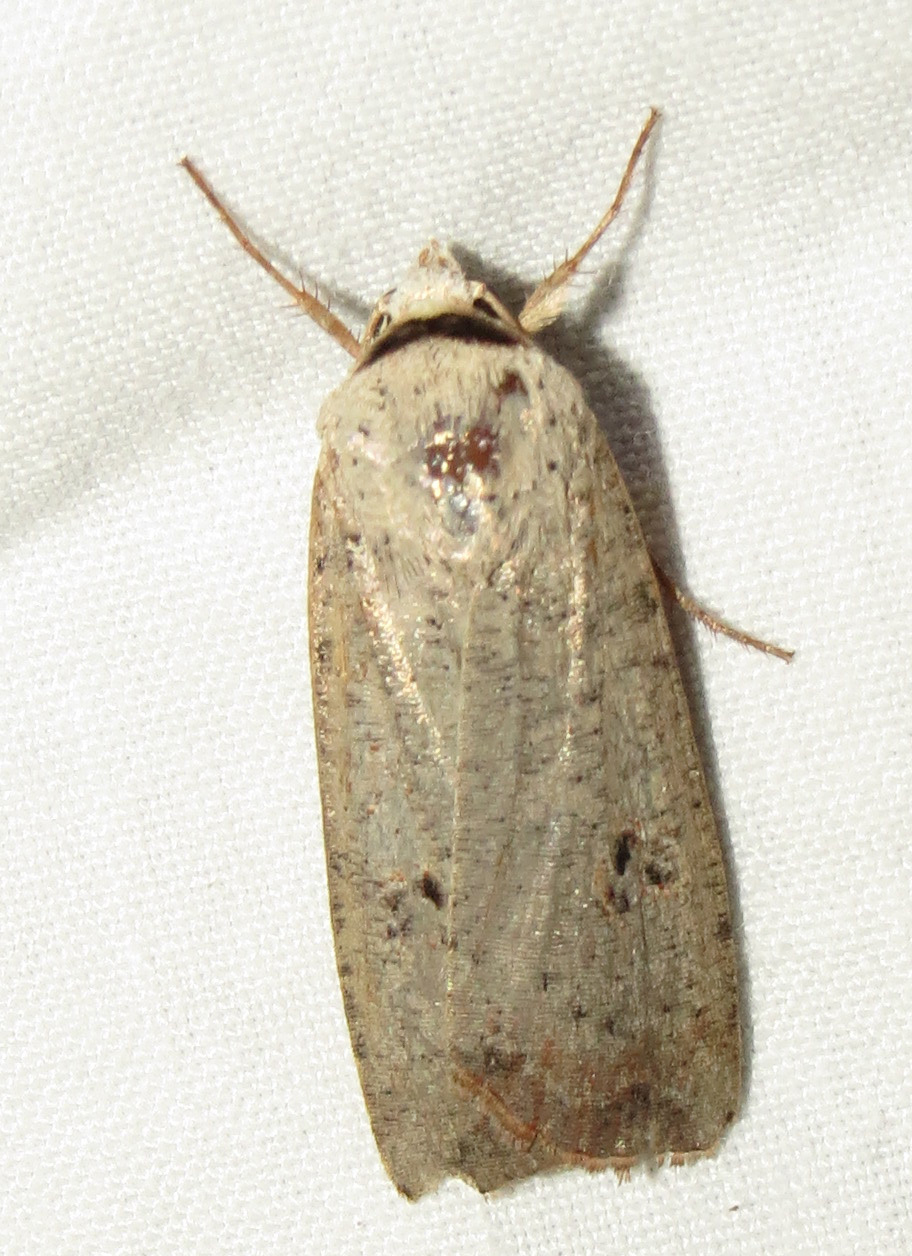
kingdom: Animalia
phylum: Arthropoda
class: Insecta
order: Lepidoptera
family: Noctuidae
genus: Anicla
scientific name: Anicla infecta
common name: Green cutworm
